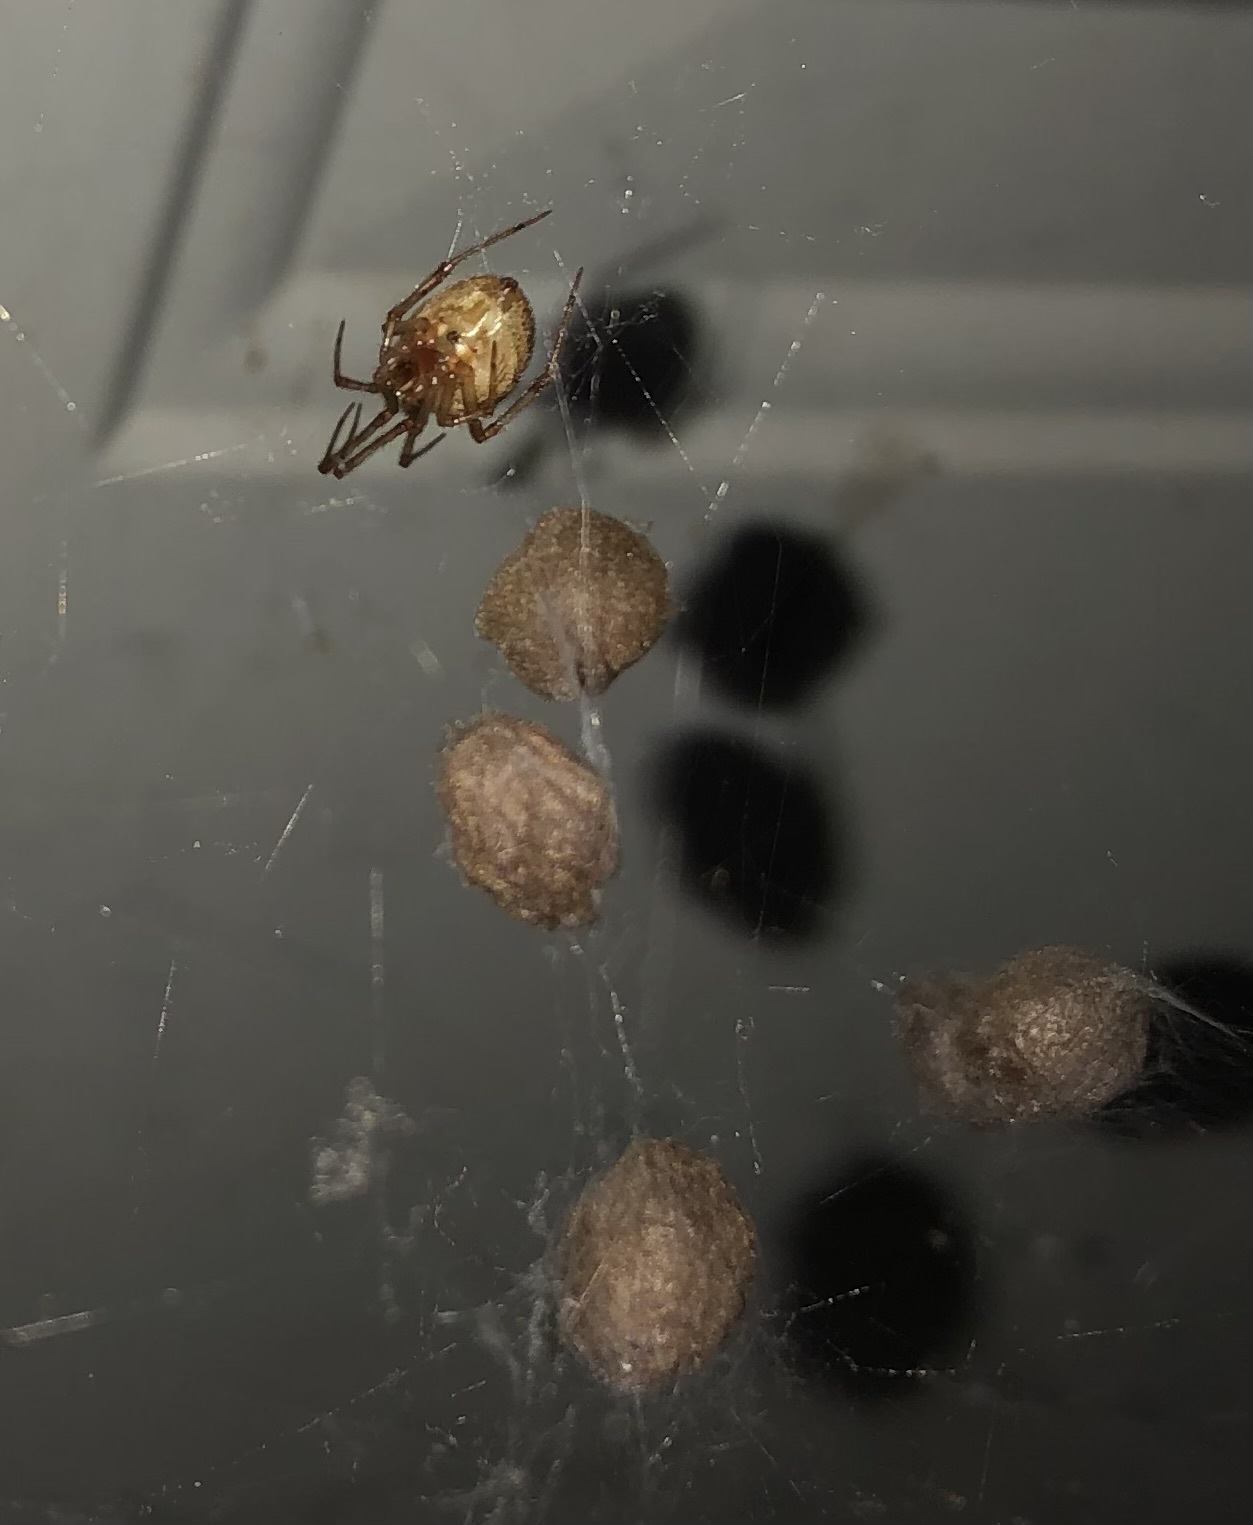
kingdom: Animalia
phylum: Arthropoda
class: Arachnida
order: Araneae
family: Theridiidae
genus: Parasteatoda
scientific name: Parasteatoda tepidariorum
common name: Common house spider
